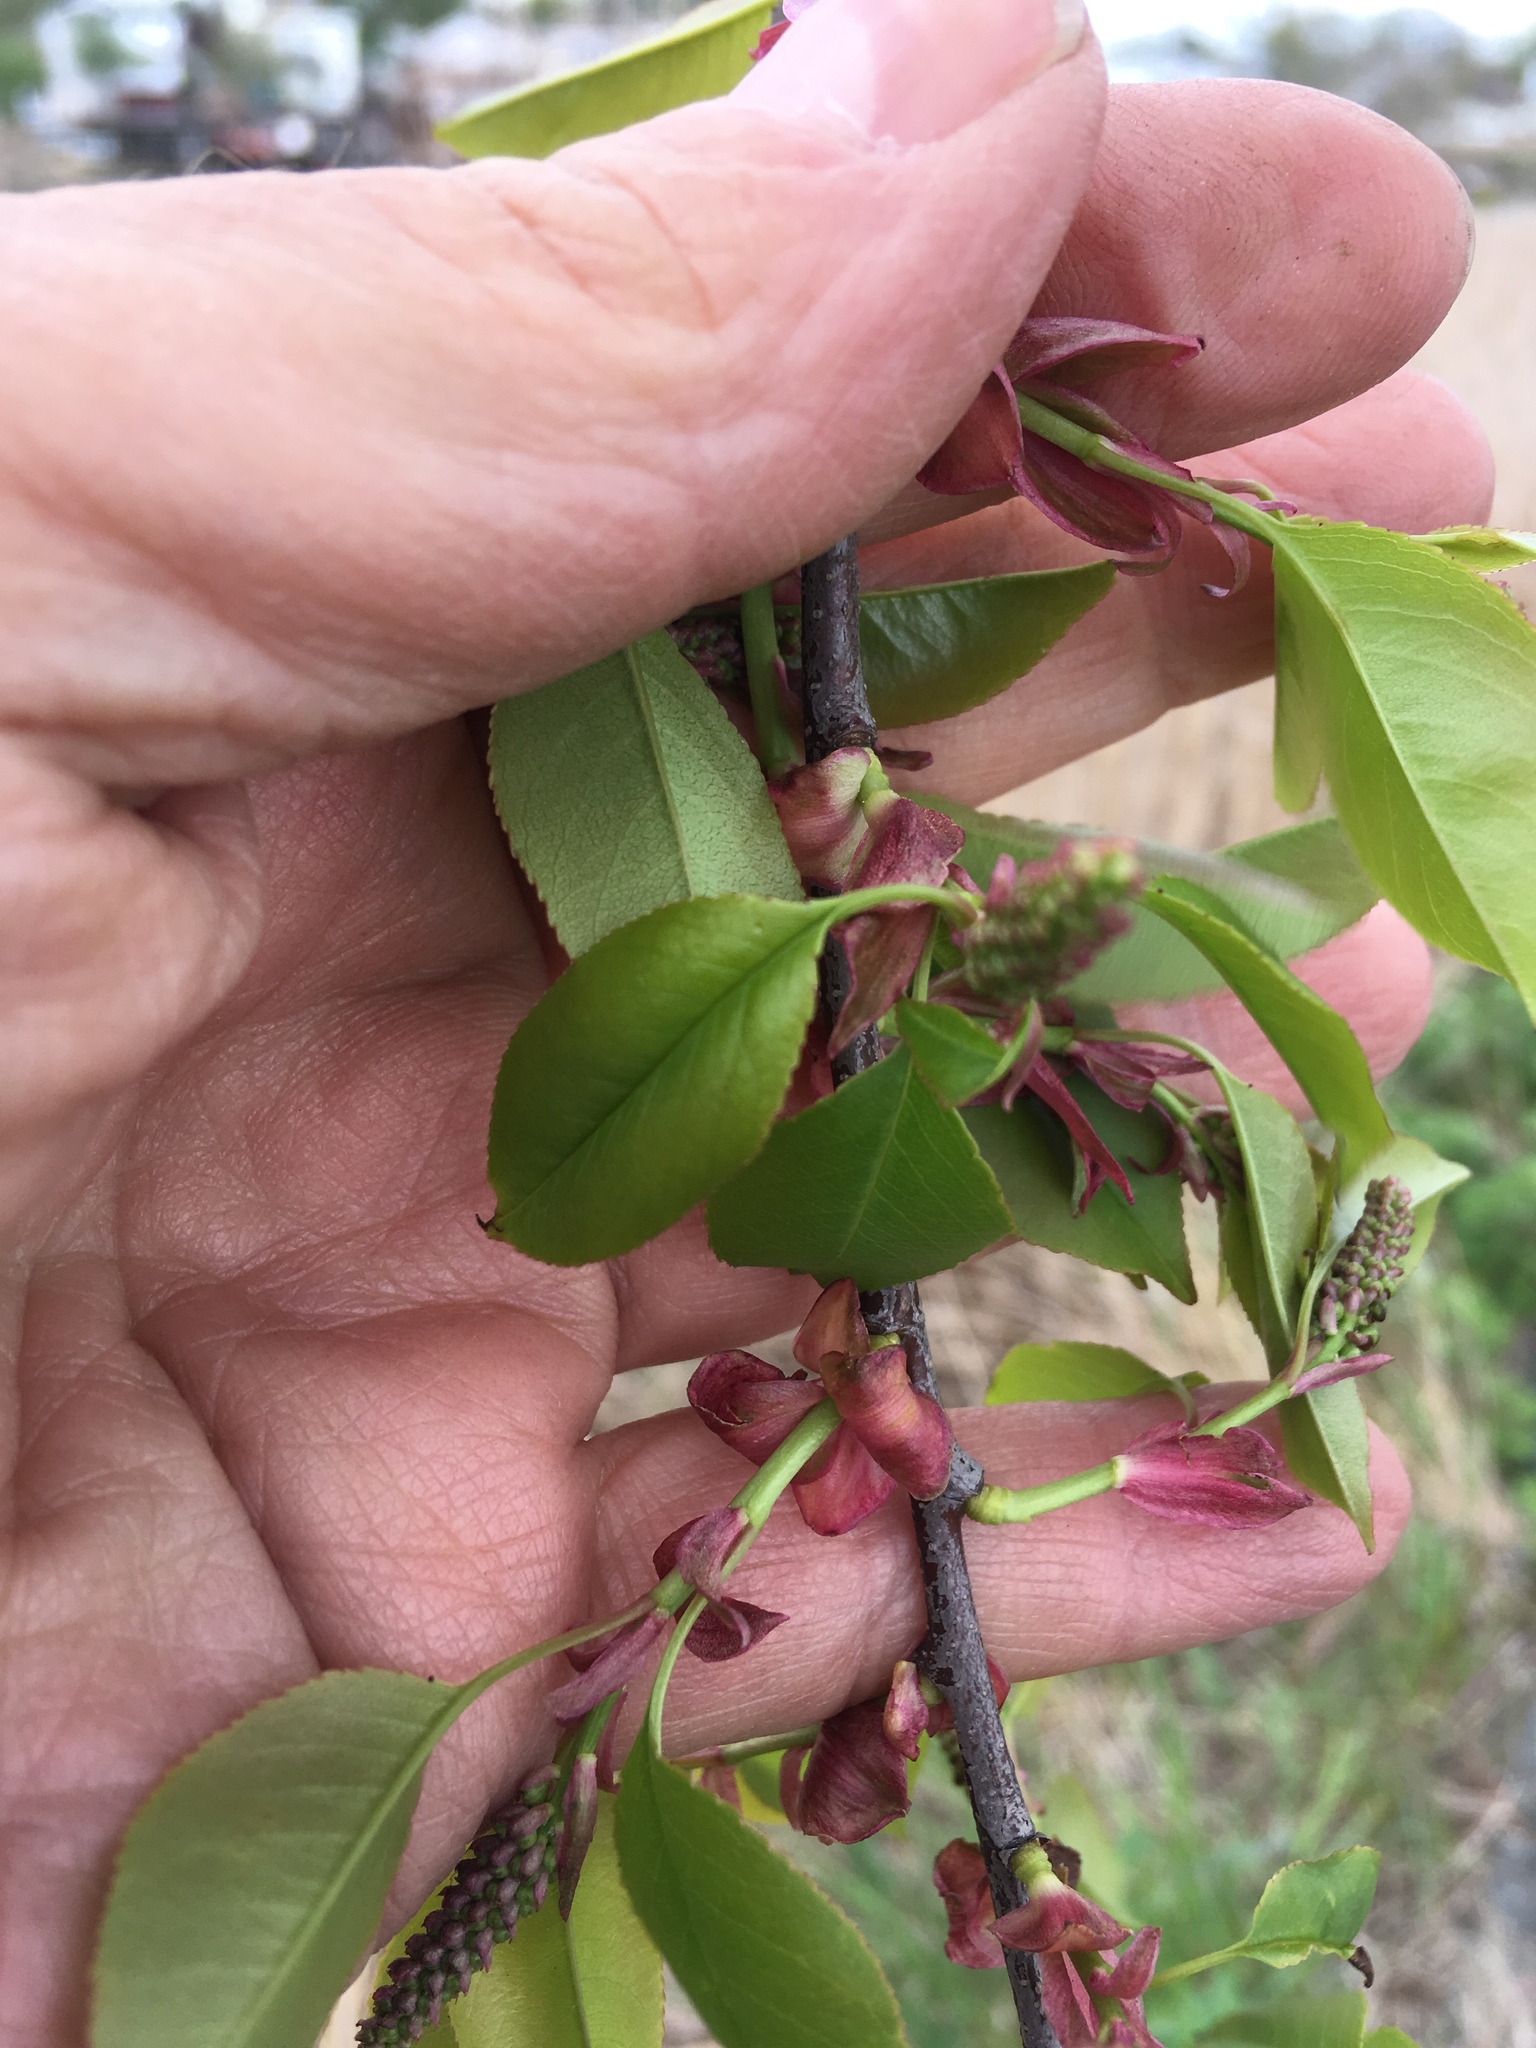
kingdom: Plantae
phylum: Tracheophyta
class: Magnoliopsida
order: Rosales
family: Rosaceae
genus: Prunus
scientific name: Prunus serotina
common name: Black cherry
